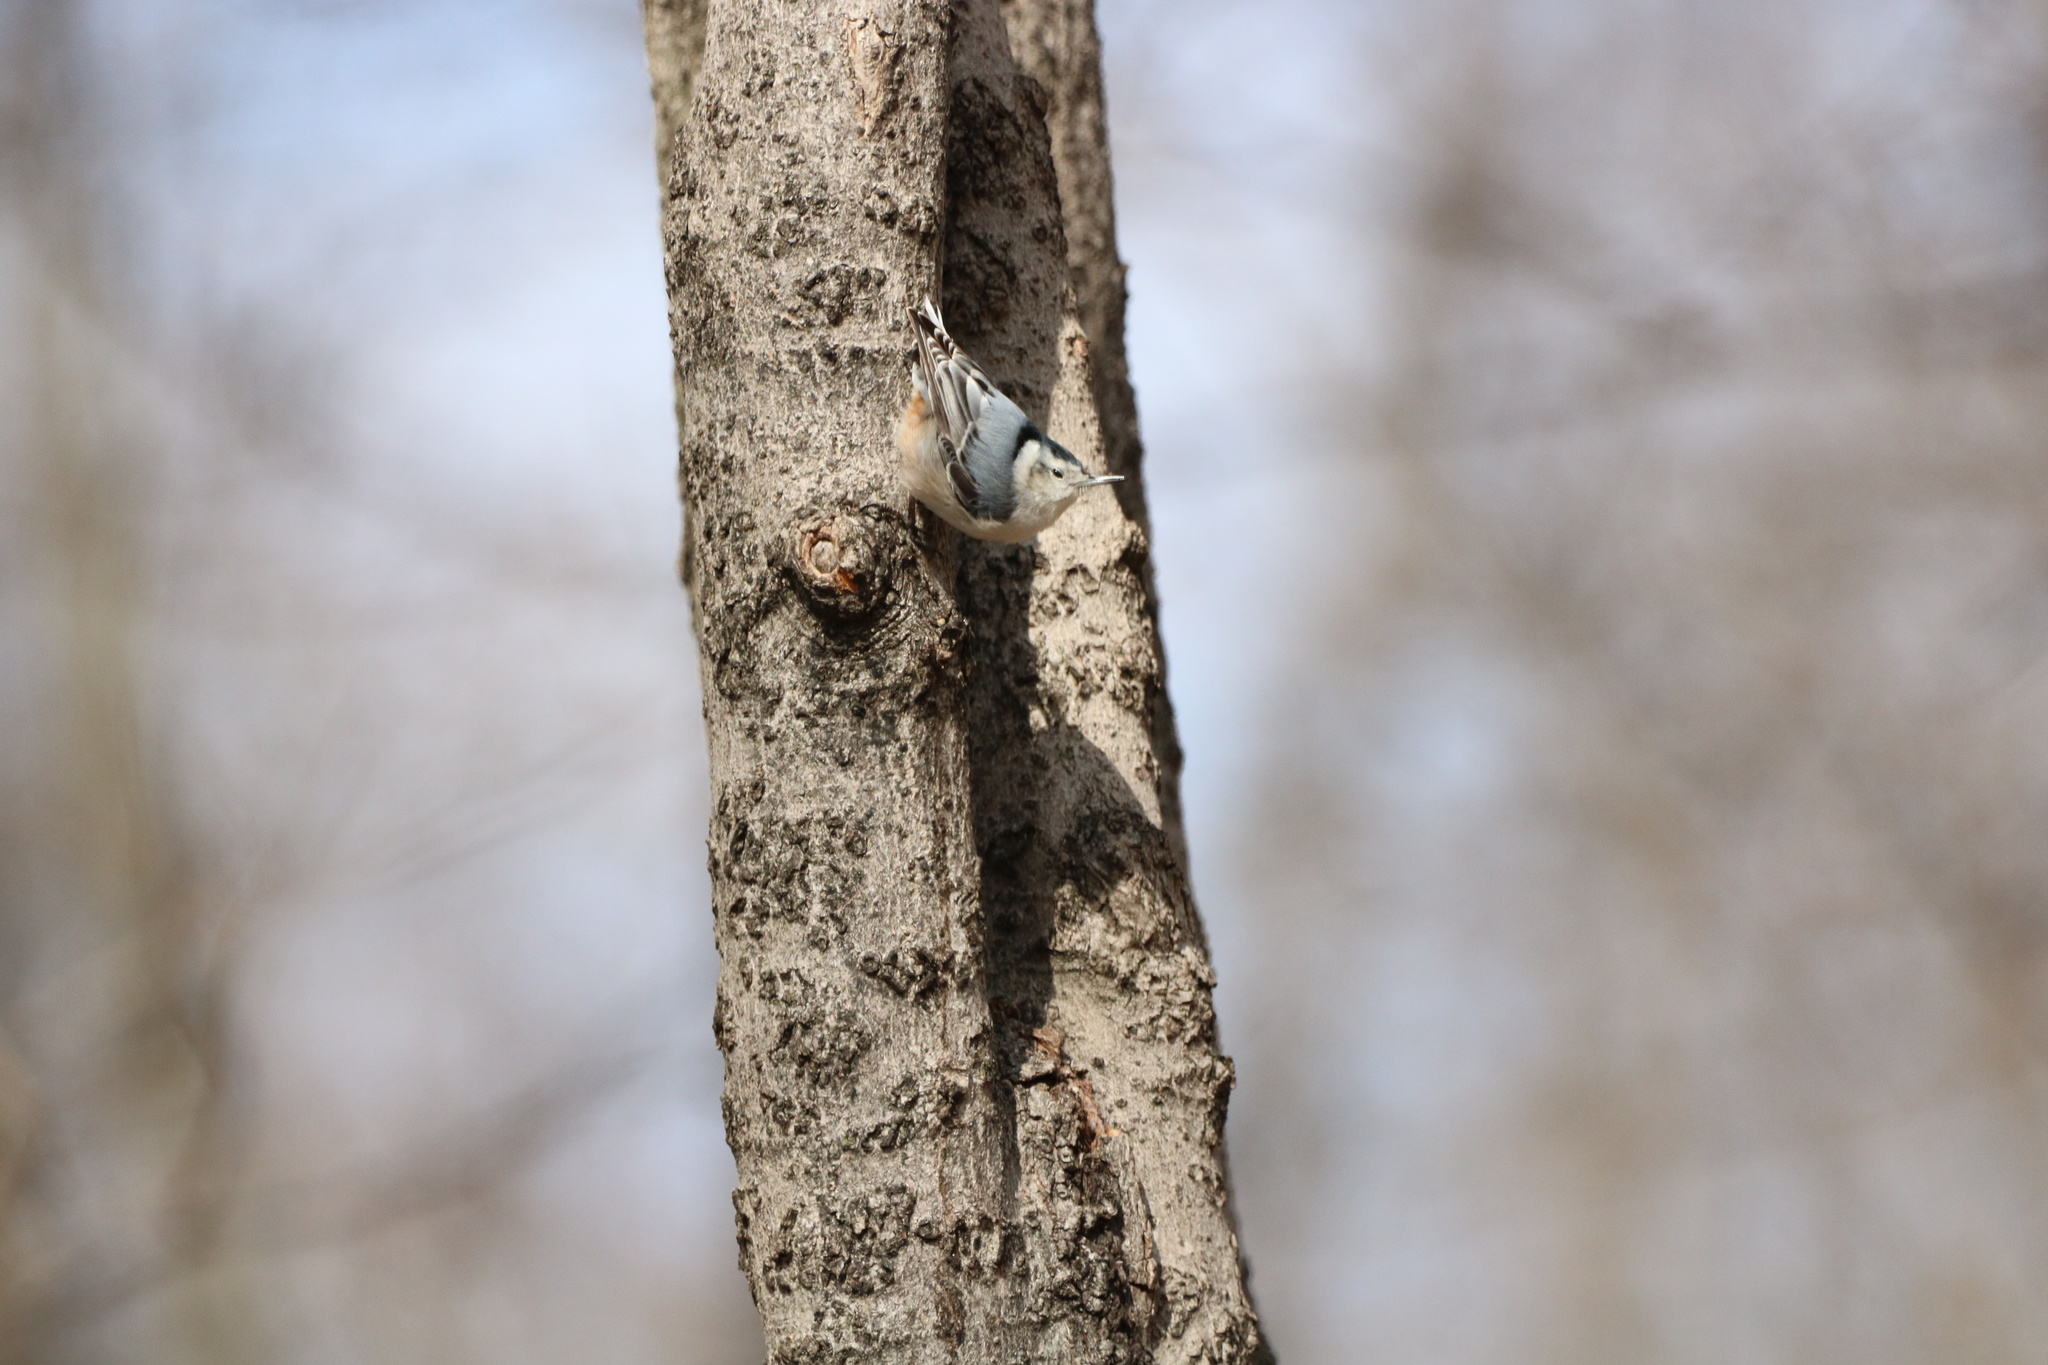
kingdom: Animalia
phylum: Chordata
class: Aves
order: Passeriformes
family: Sittidae
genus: Sitta
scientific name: Sitta carolinensis
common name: White-breasted nuthatch
